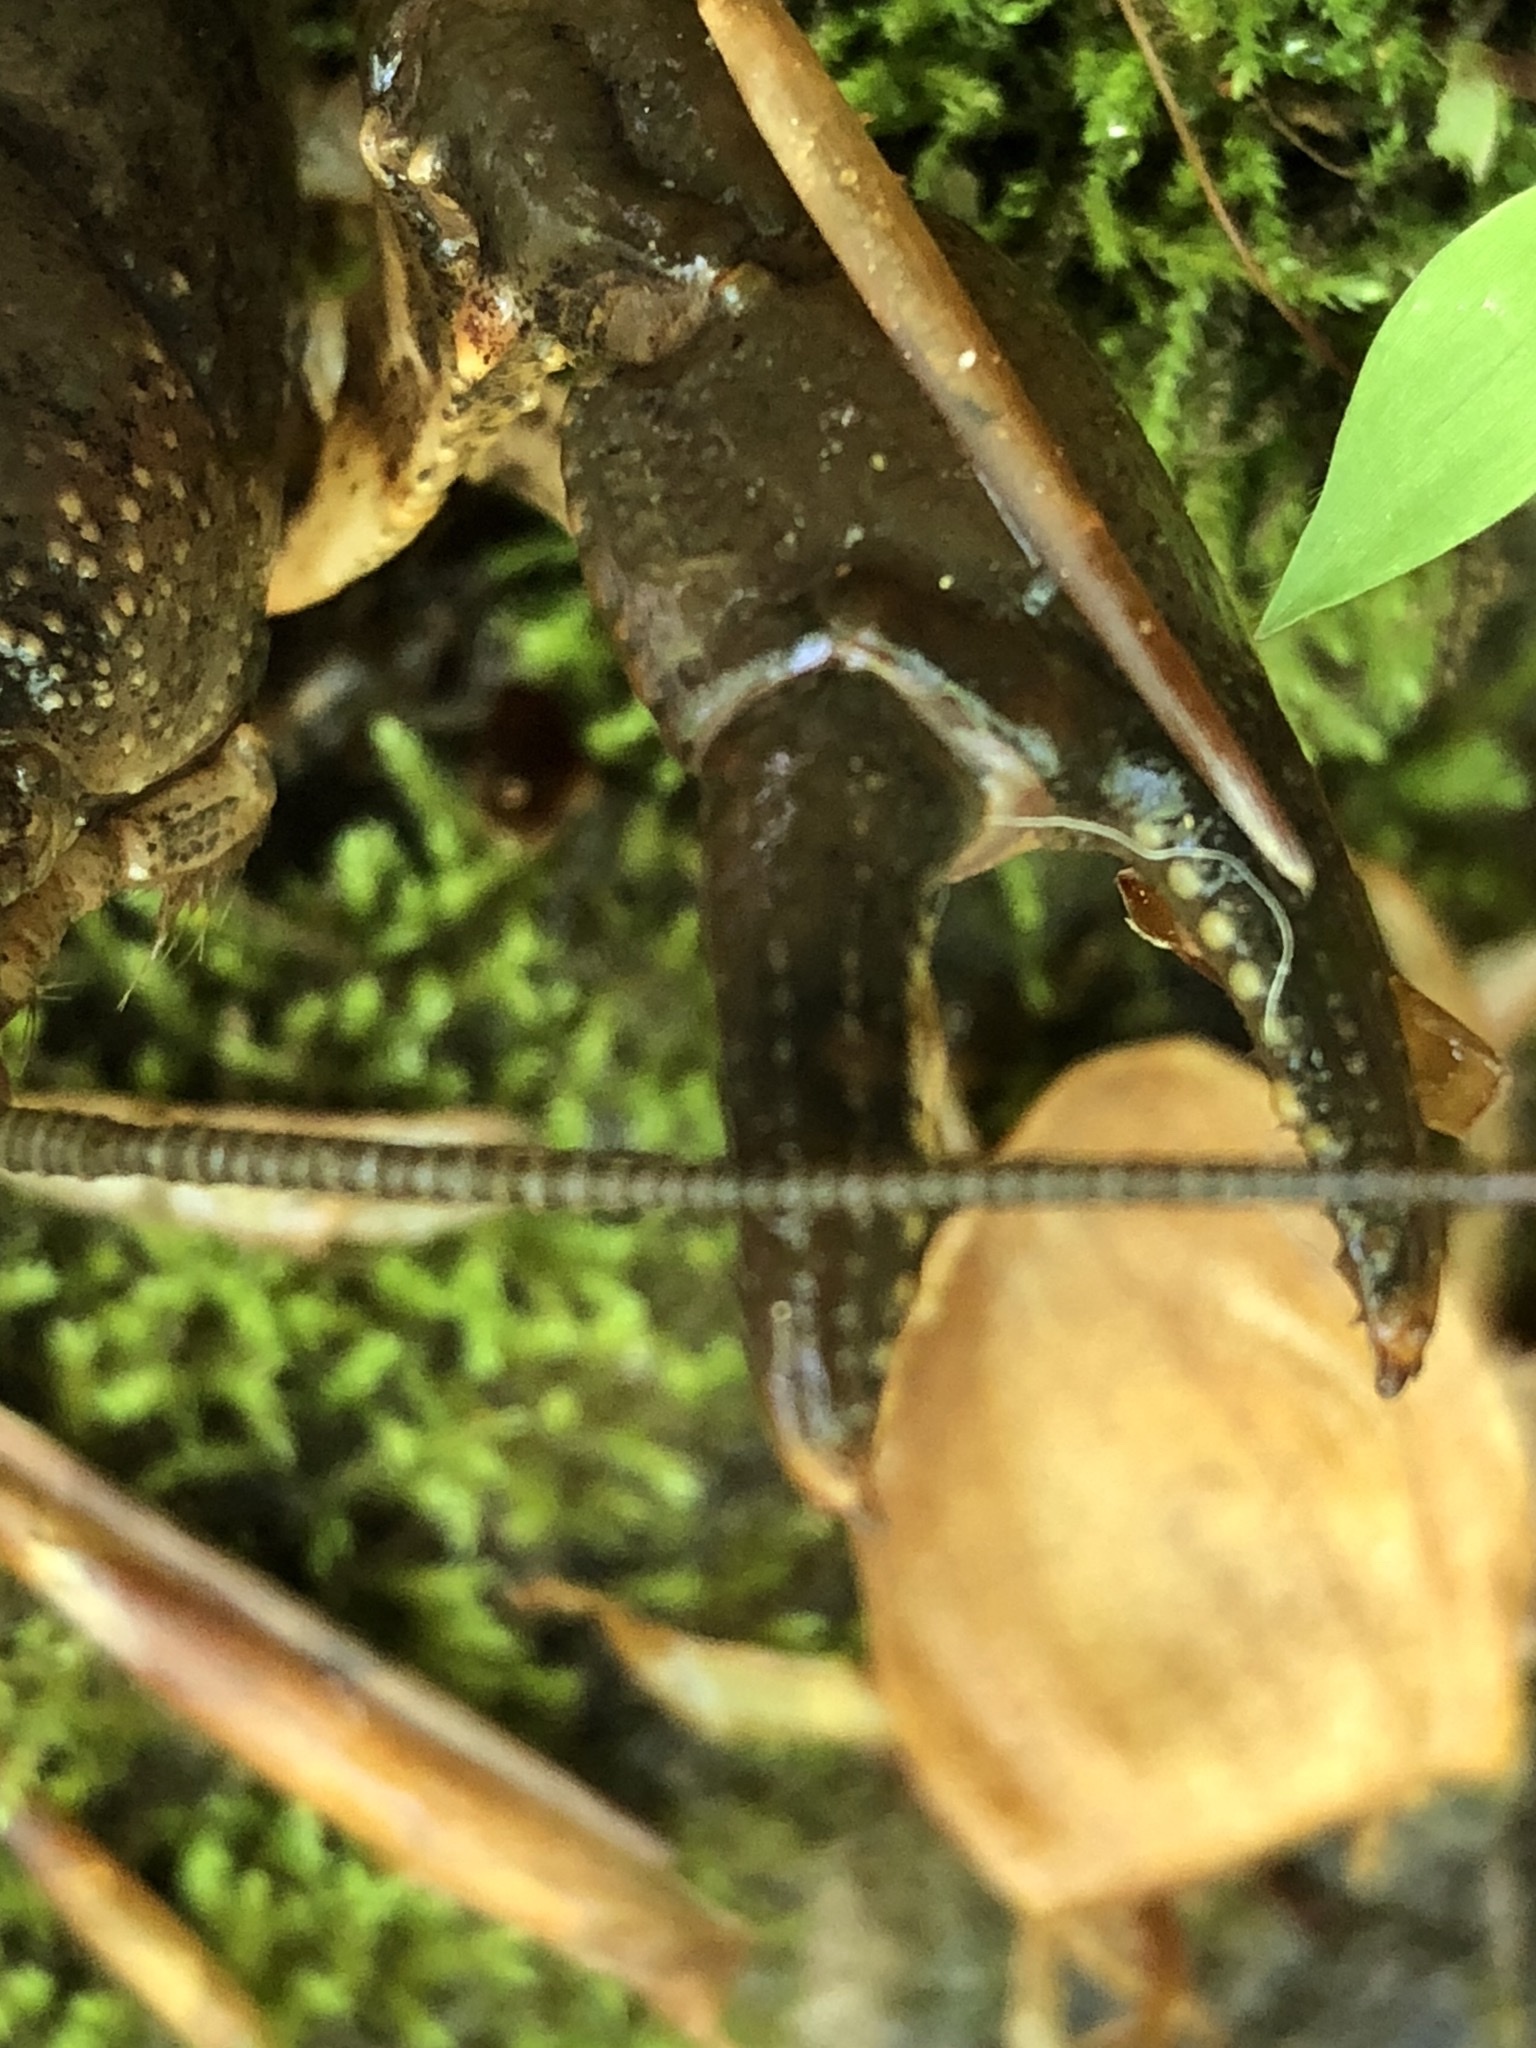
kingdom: Animalia
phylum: Arthropoda
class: Malacostraca
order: Decapoda
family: Cambaridae
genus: Cambarus
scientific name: Cambarus bartonii
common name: Appalachian brook crayfish
